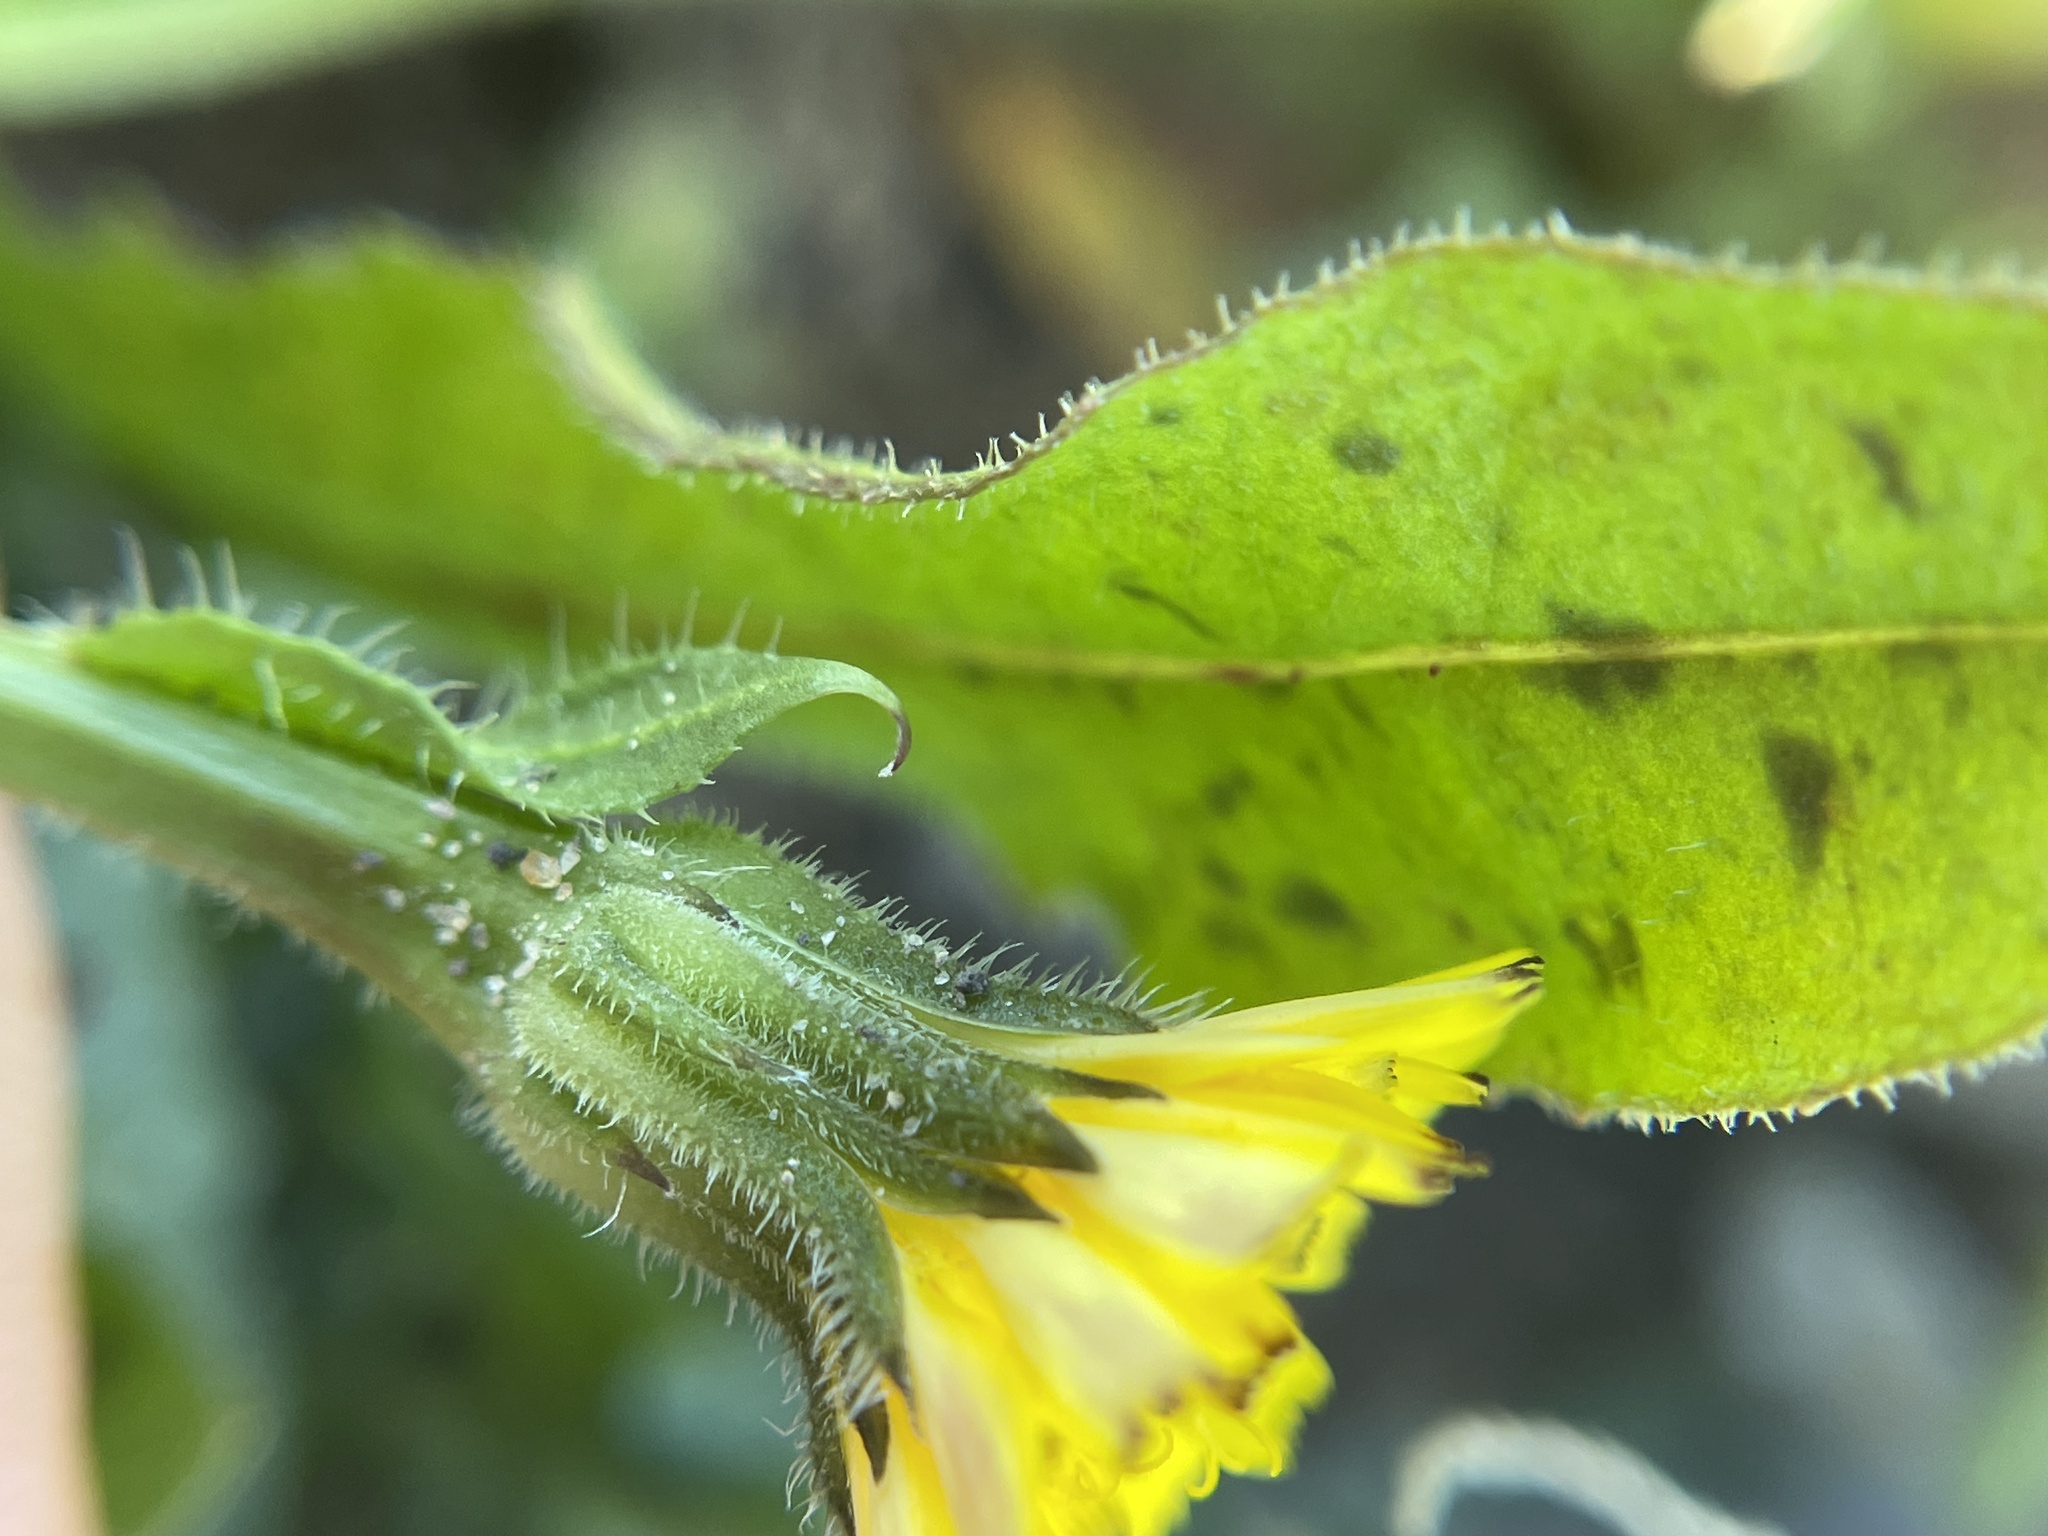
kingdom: Plantae
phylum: Tracheophyta
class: Magnoliopsida
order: Asterales
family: Asteraceae
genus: Hedypnois
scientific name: Hedypnois rhagadioloides
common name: Cretan weed
